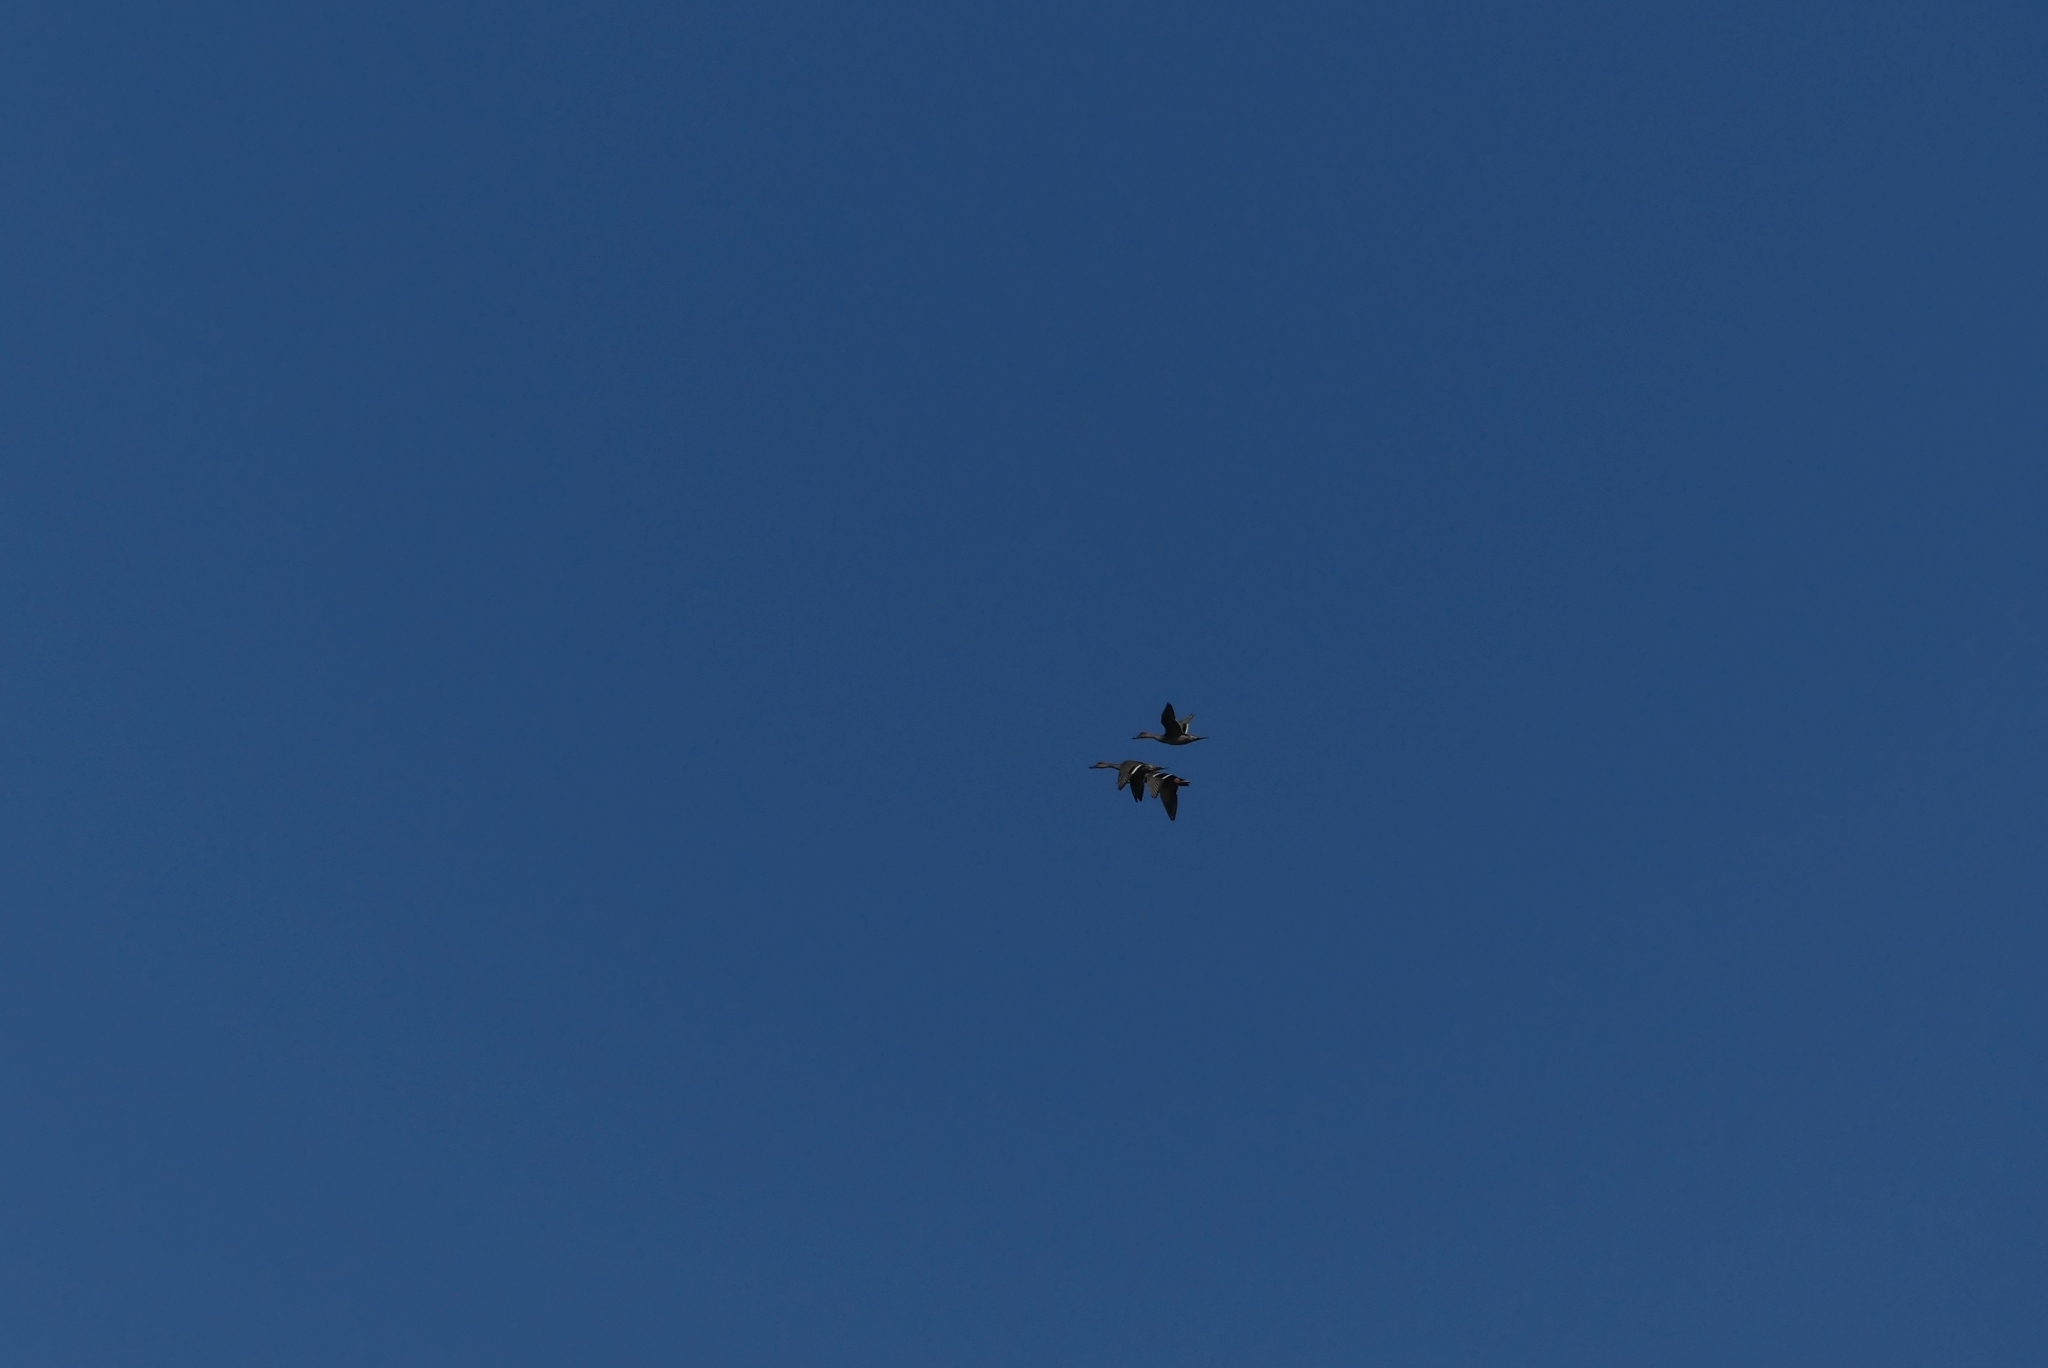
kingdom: Animalia
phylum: Chordata
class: Aves
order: Anseriformes
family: Anatidae
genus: Anas
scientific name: Anas acuta
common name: Northern pintail
